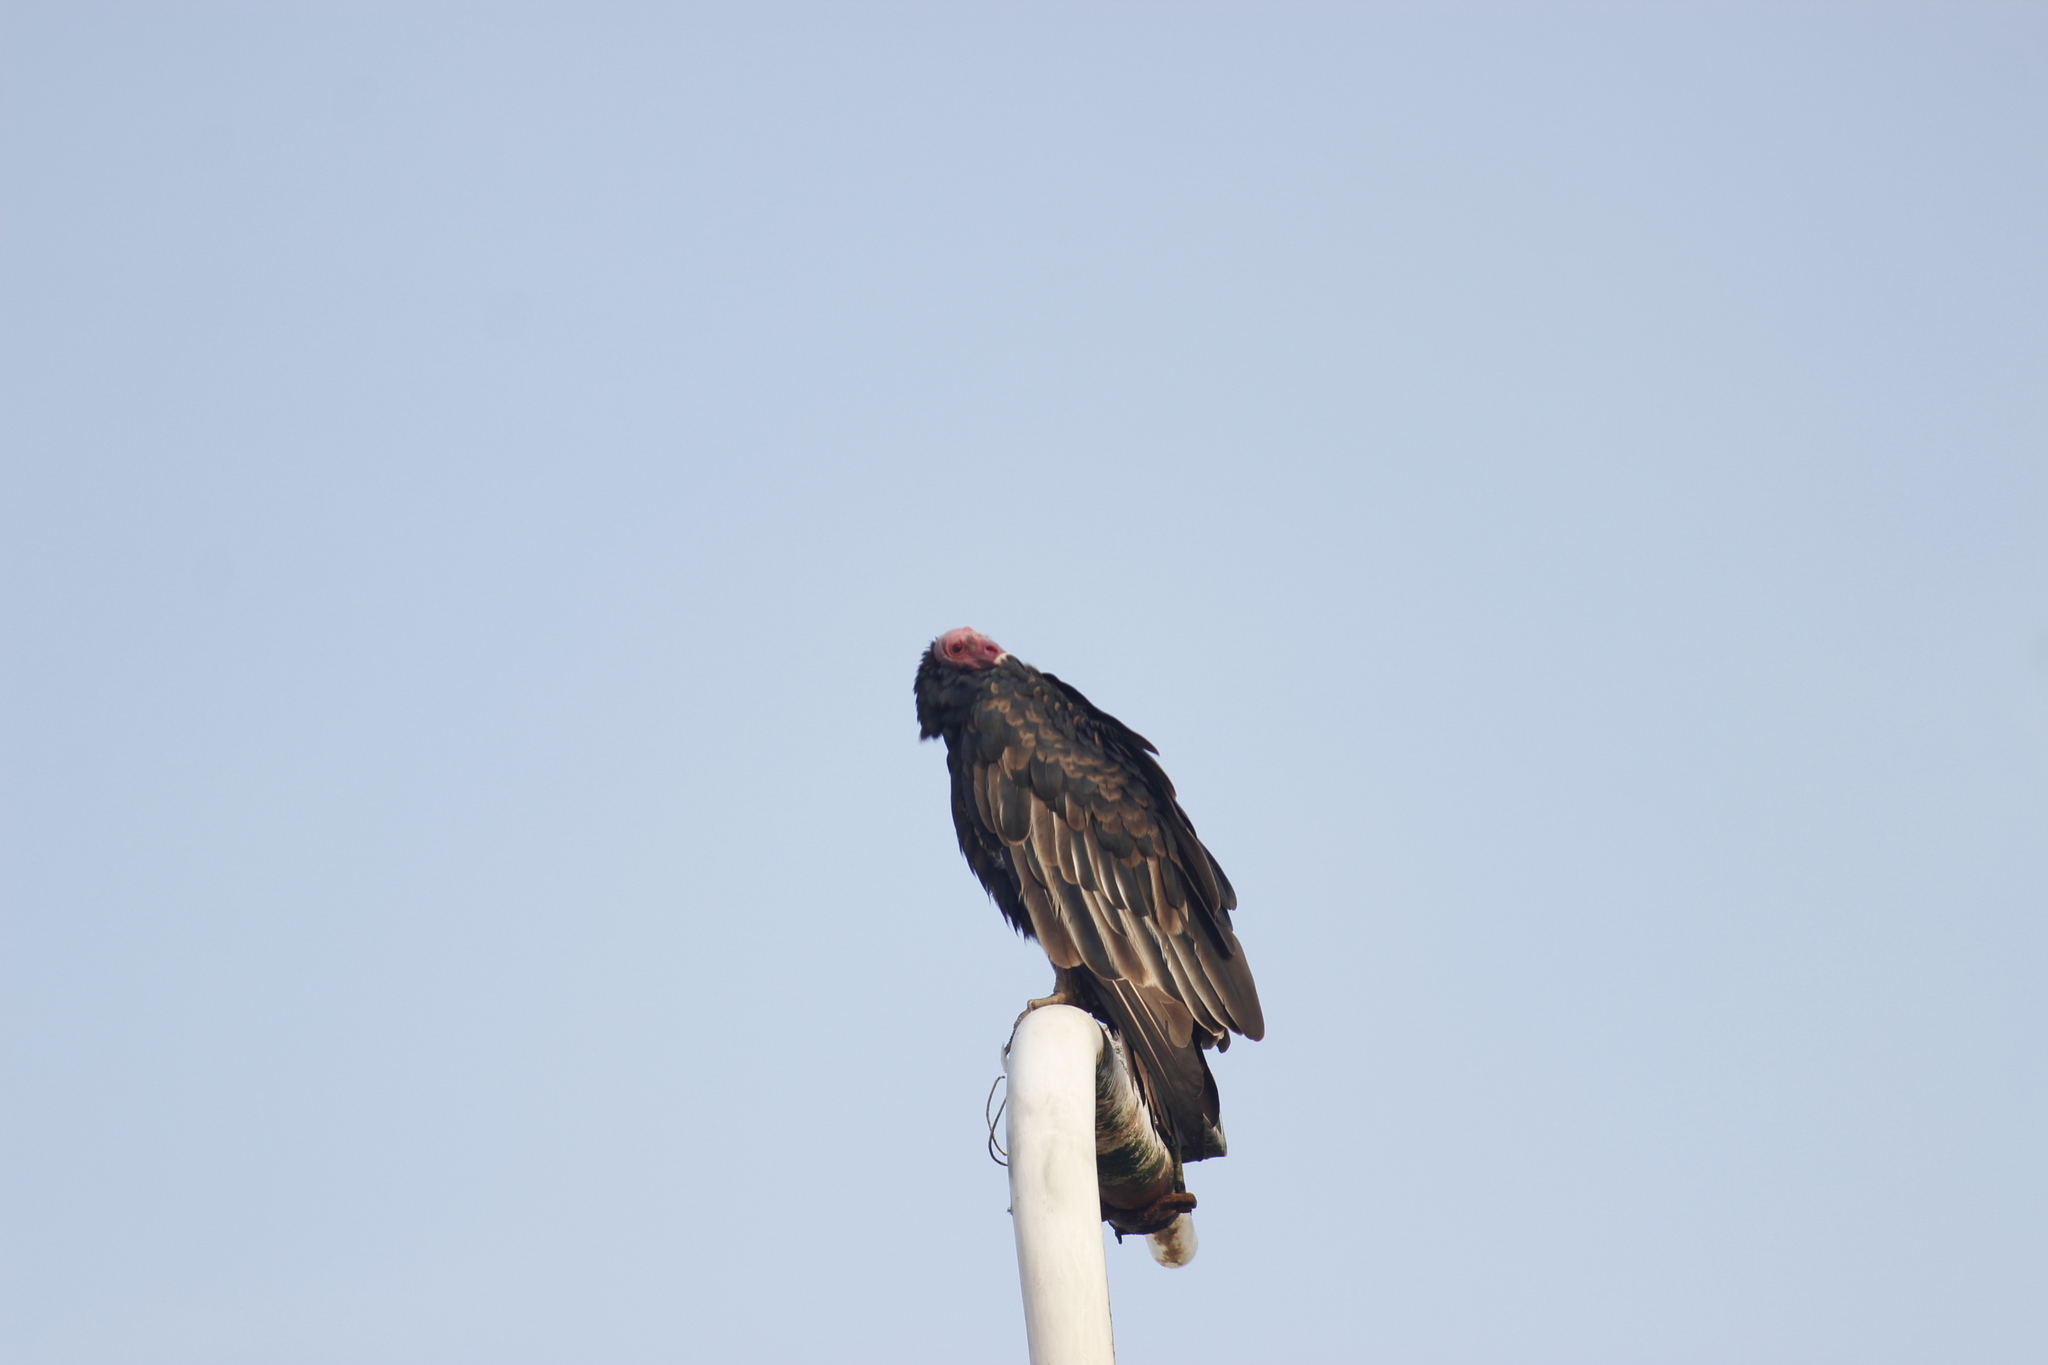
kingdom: Animalia
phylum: Chordata
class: Aves
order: Accipitriformes
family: Cathartidae
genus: Cathartes
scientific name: Cathartes aura
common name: Turkey vulture
